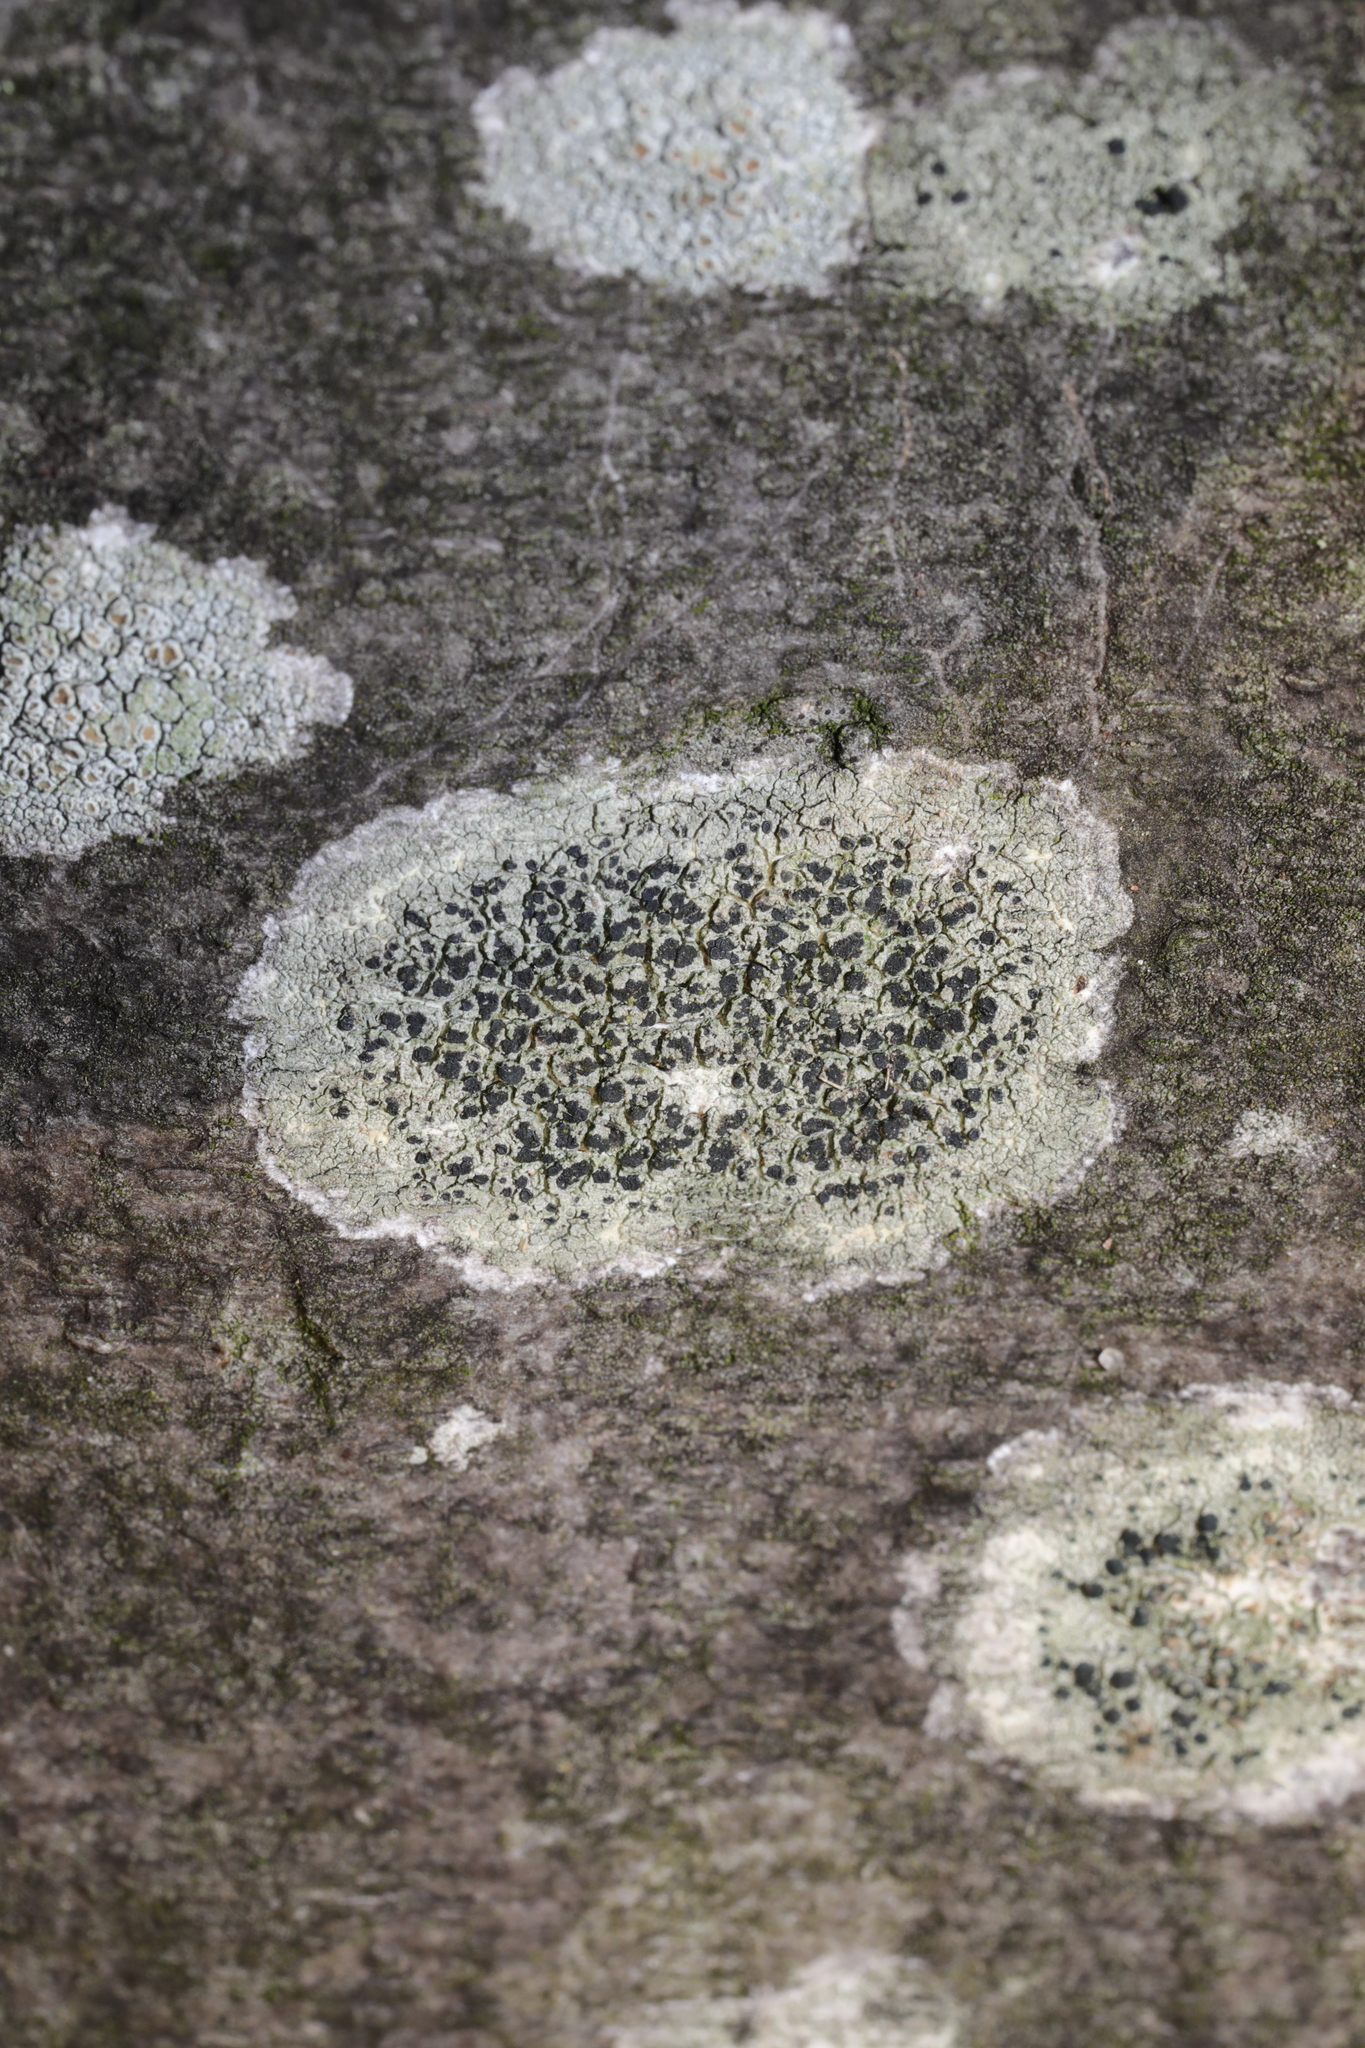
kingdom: Fungi
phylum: Ascomycota
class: Lecanoromycetes
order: Lecanorales
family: Lecanoraceae
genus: Lecidella
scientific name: Lecidella elaeochroma
